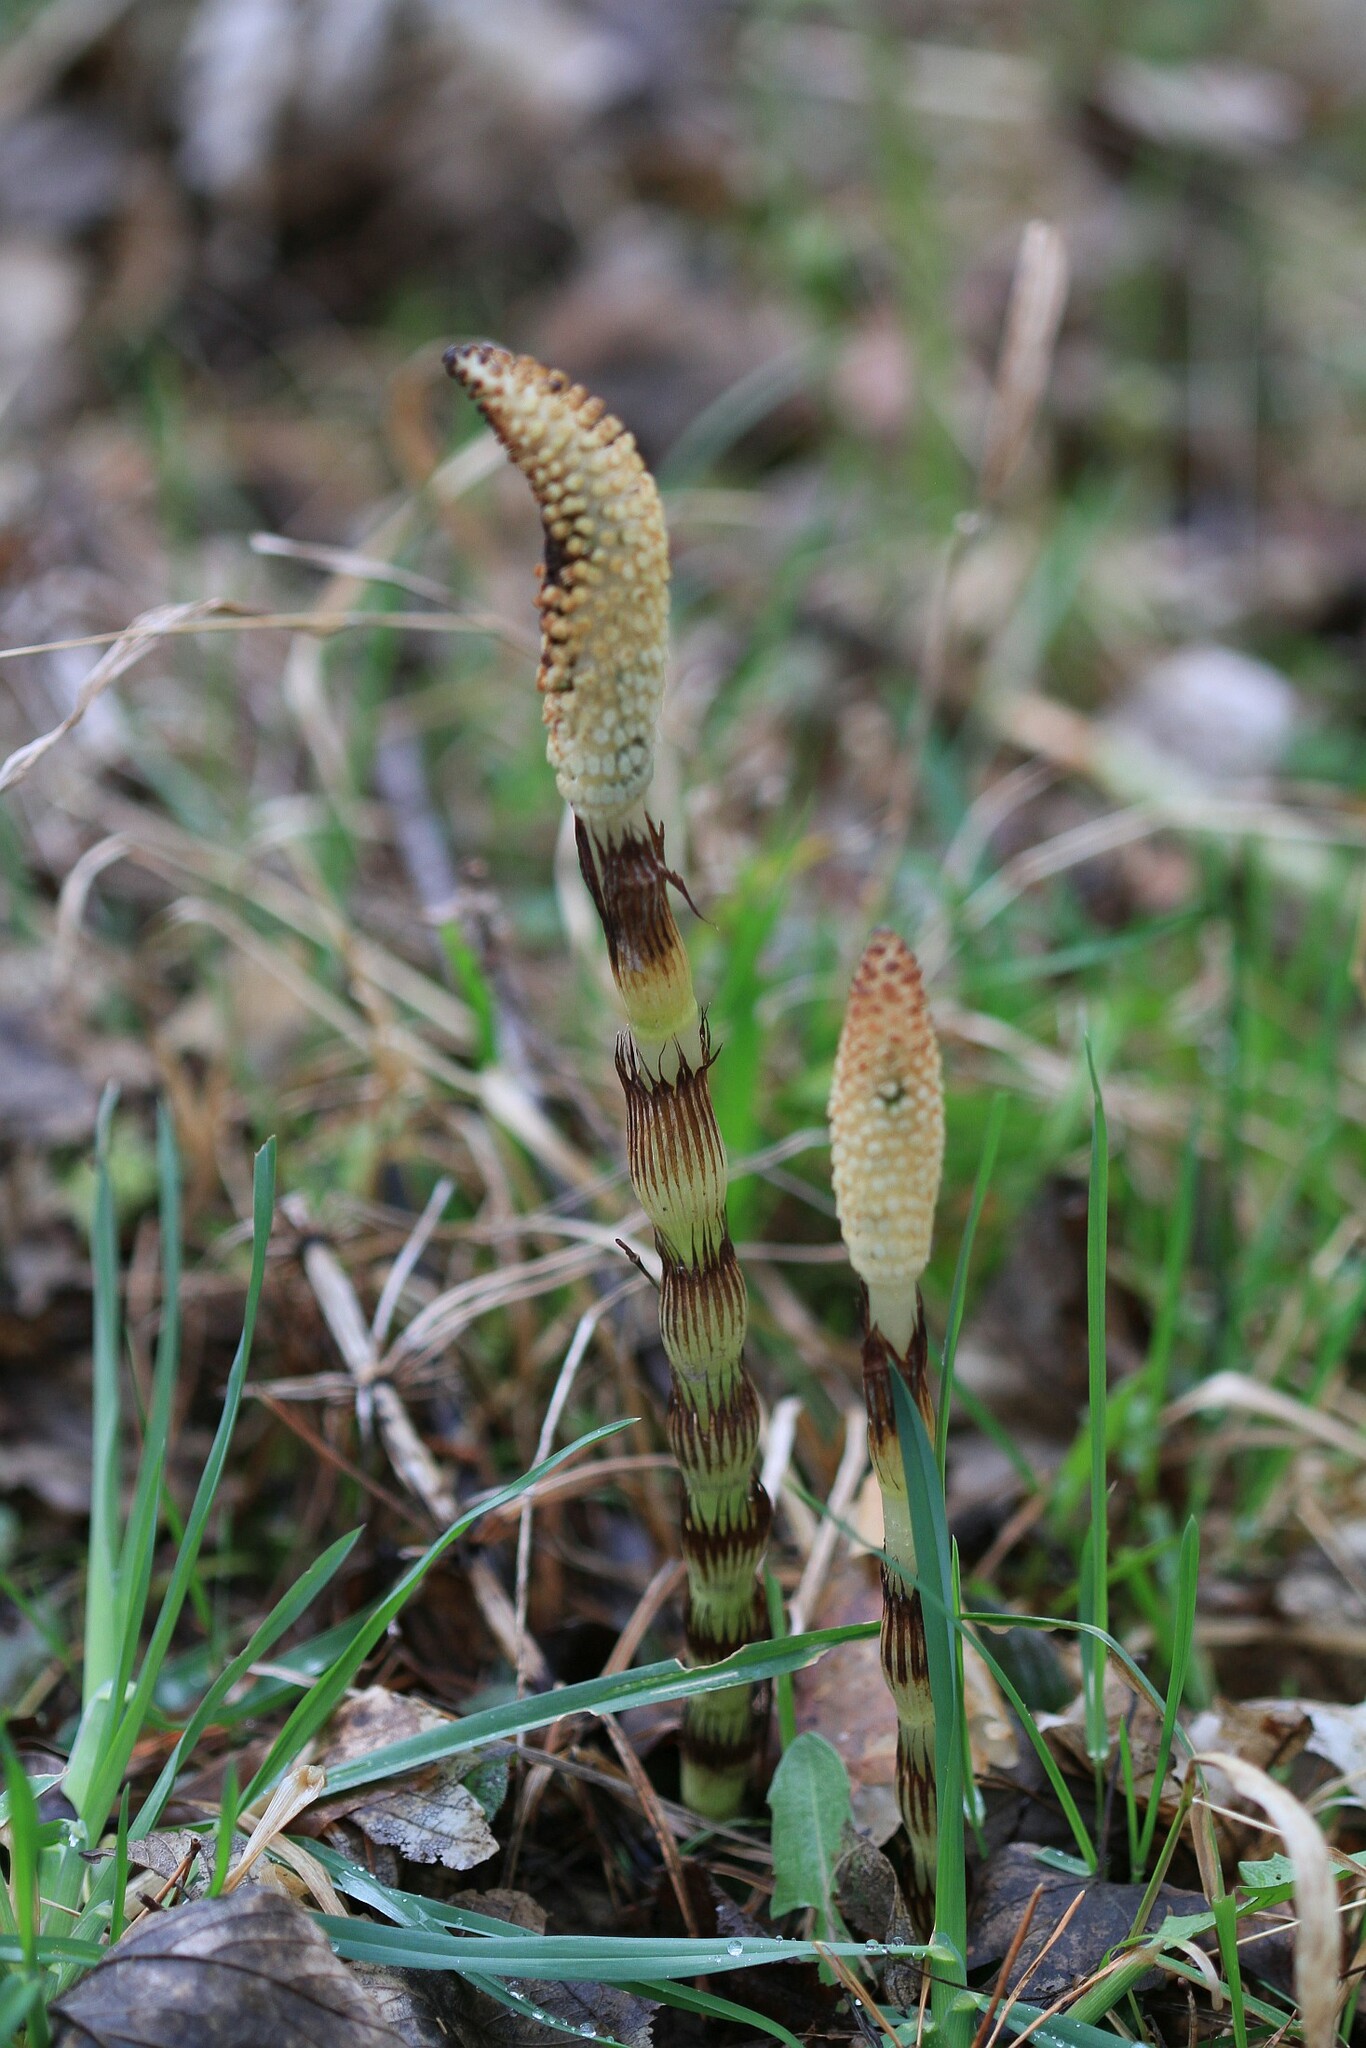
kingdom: Plantae
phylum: Tracheophyta
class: Polypodiopsida
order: Equisetales
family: Equisetaceae
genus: Equisetum
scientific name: Equisetum telmateia
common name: Great horsetail
